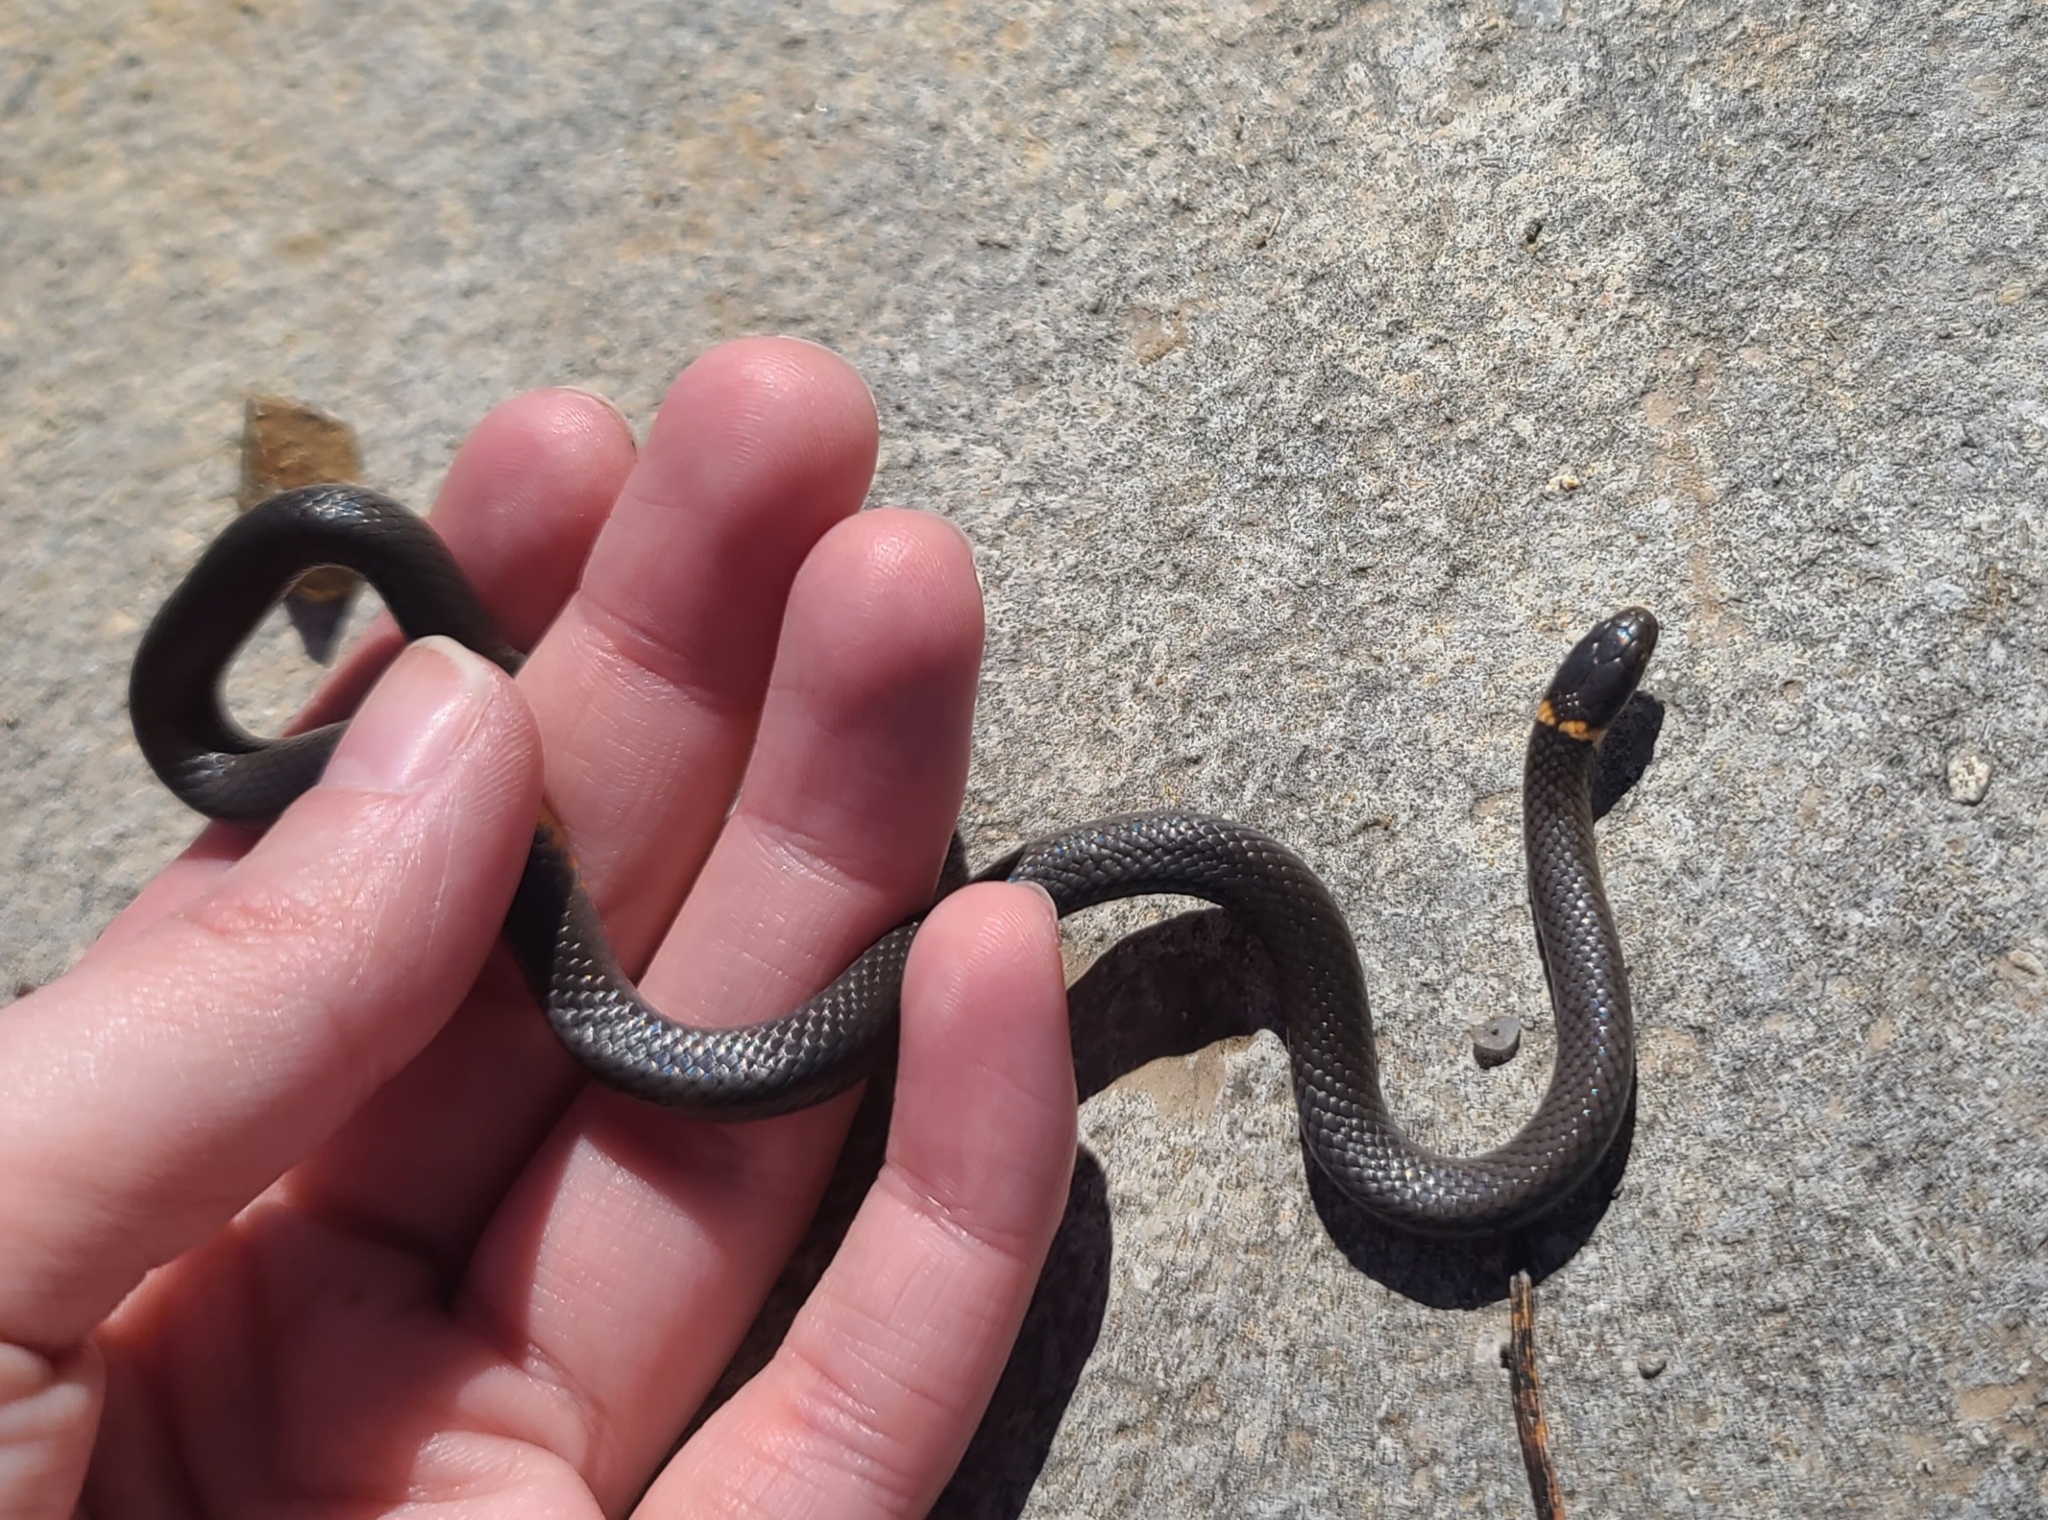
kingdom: Animalia
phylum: Chordata
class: Squamata
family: Colubridae
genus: Diadophis
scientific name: Diadophis punctatus
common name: Ringneck snake
